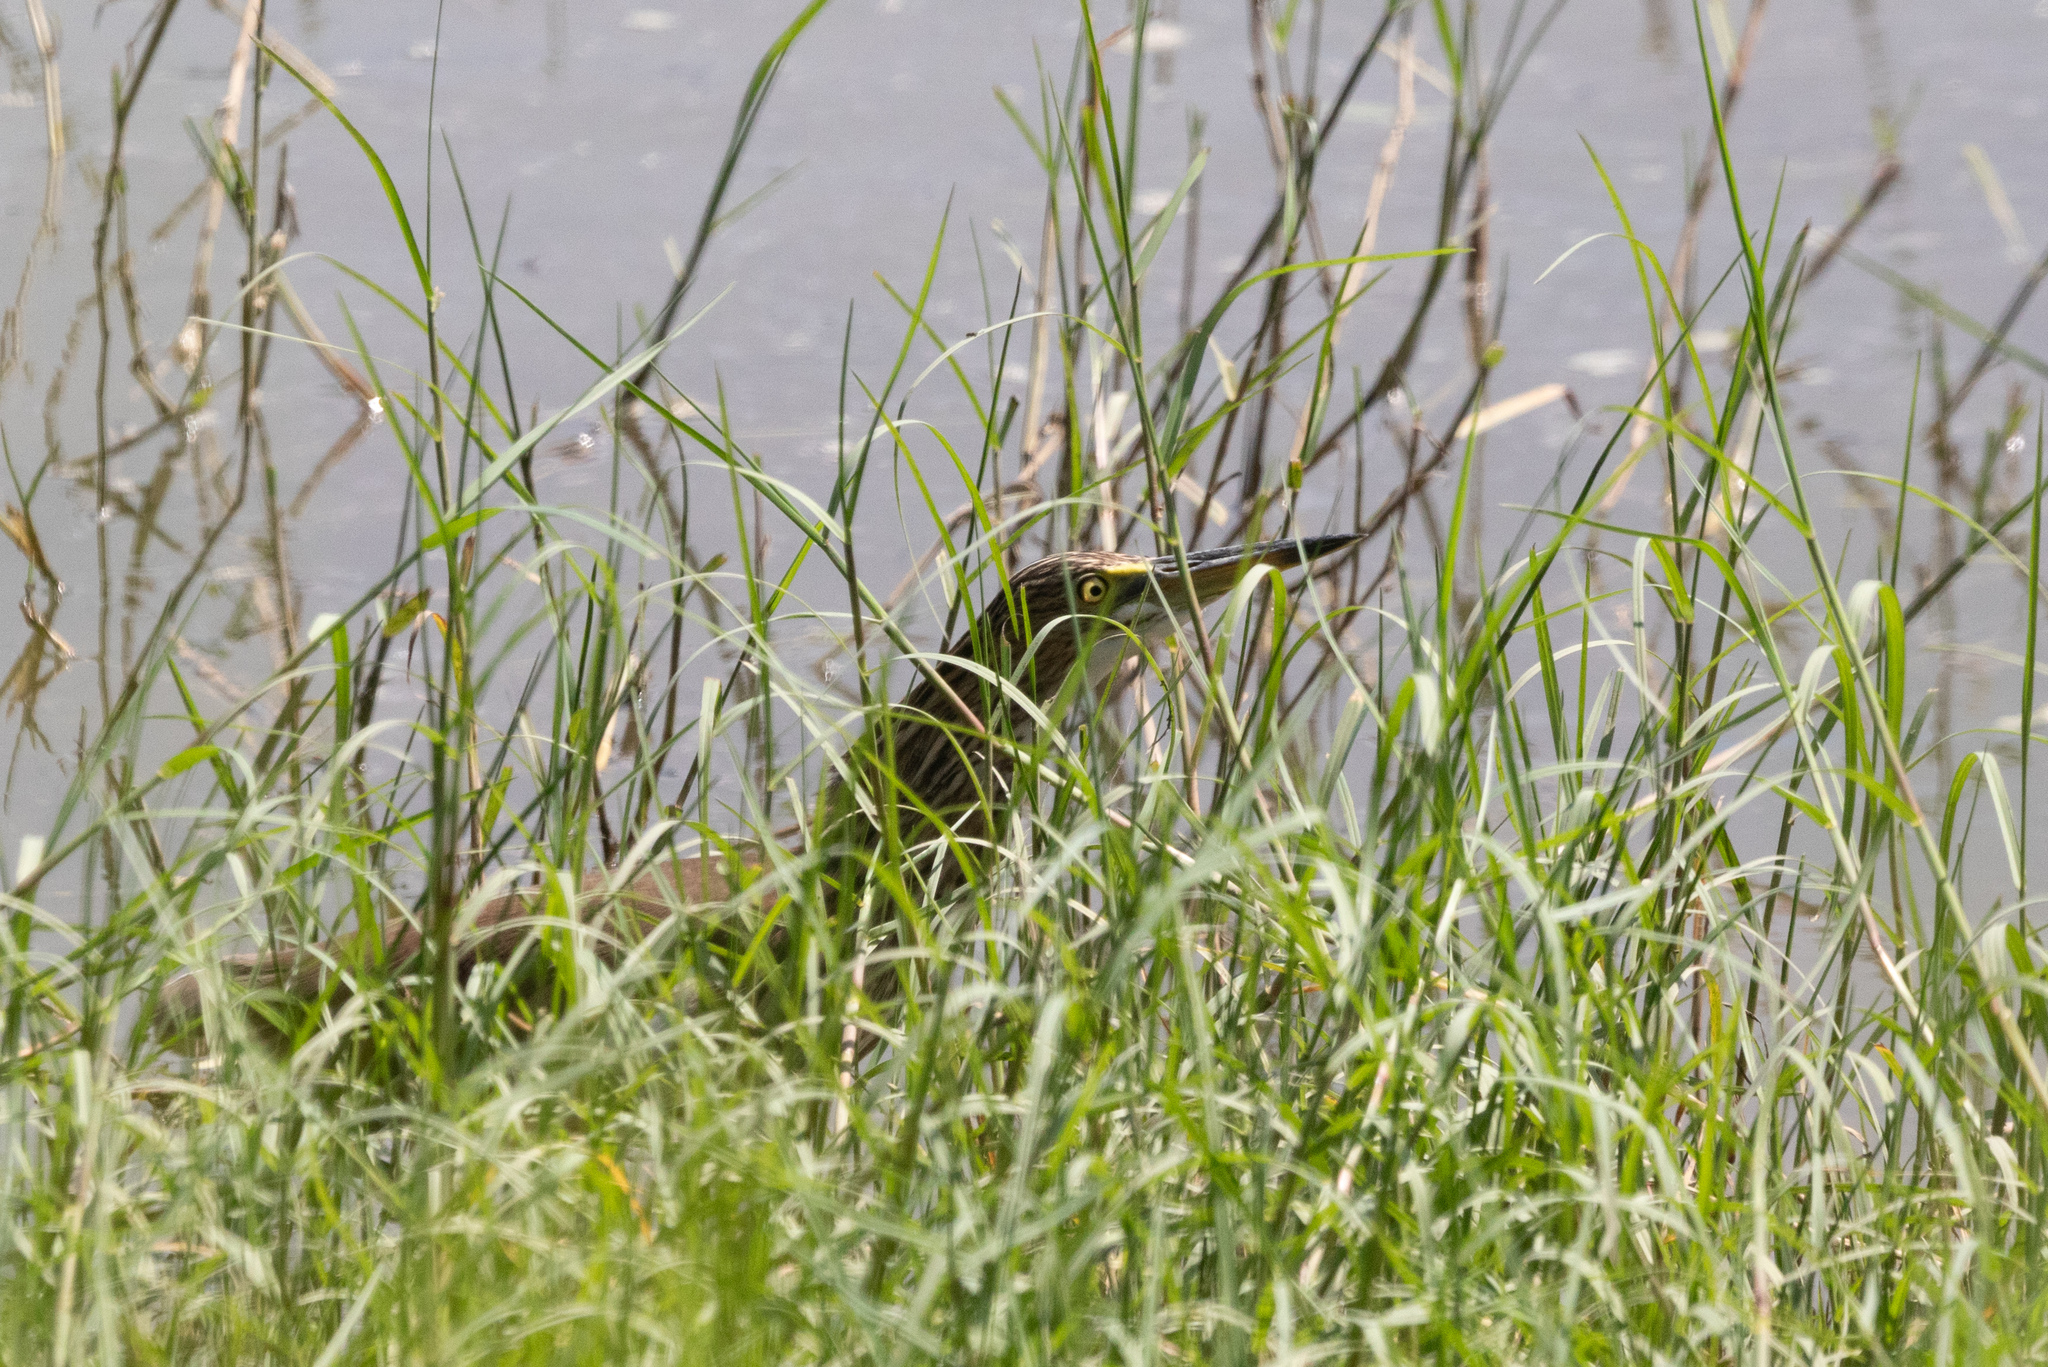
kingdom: Animalia
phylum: Chordata
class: Aves
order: Pelecaniformes
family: Ardeidae
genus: Ardeola
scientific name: Ardeola bacchus
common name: Chinese pond heron
